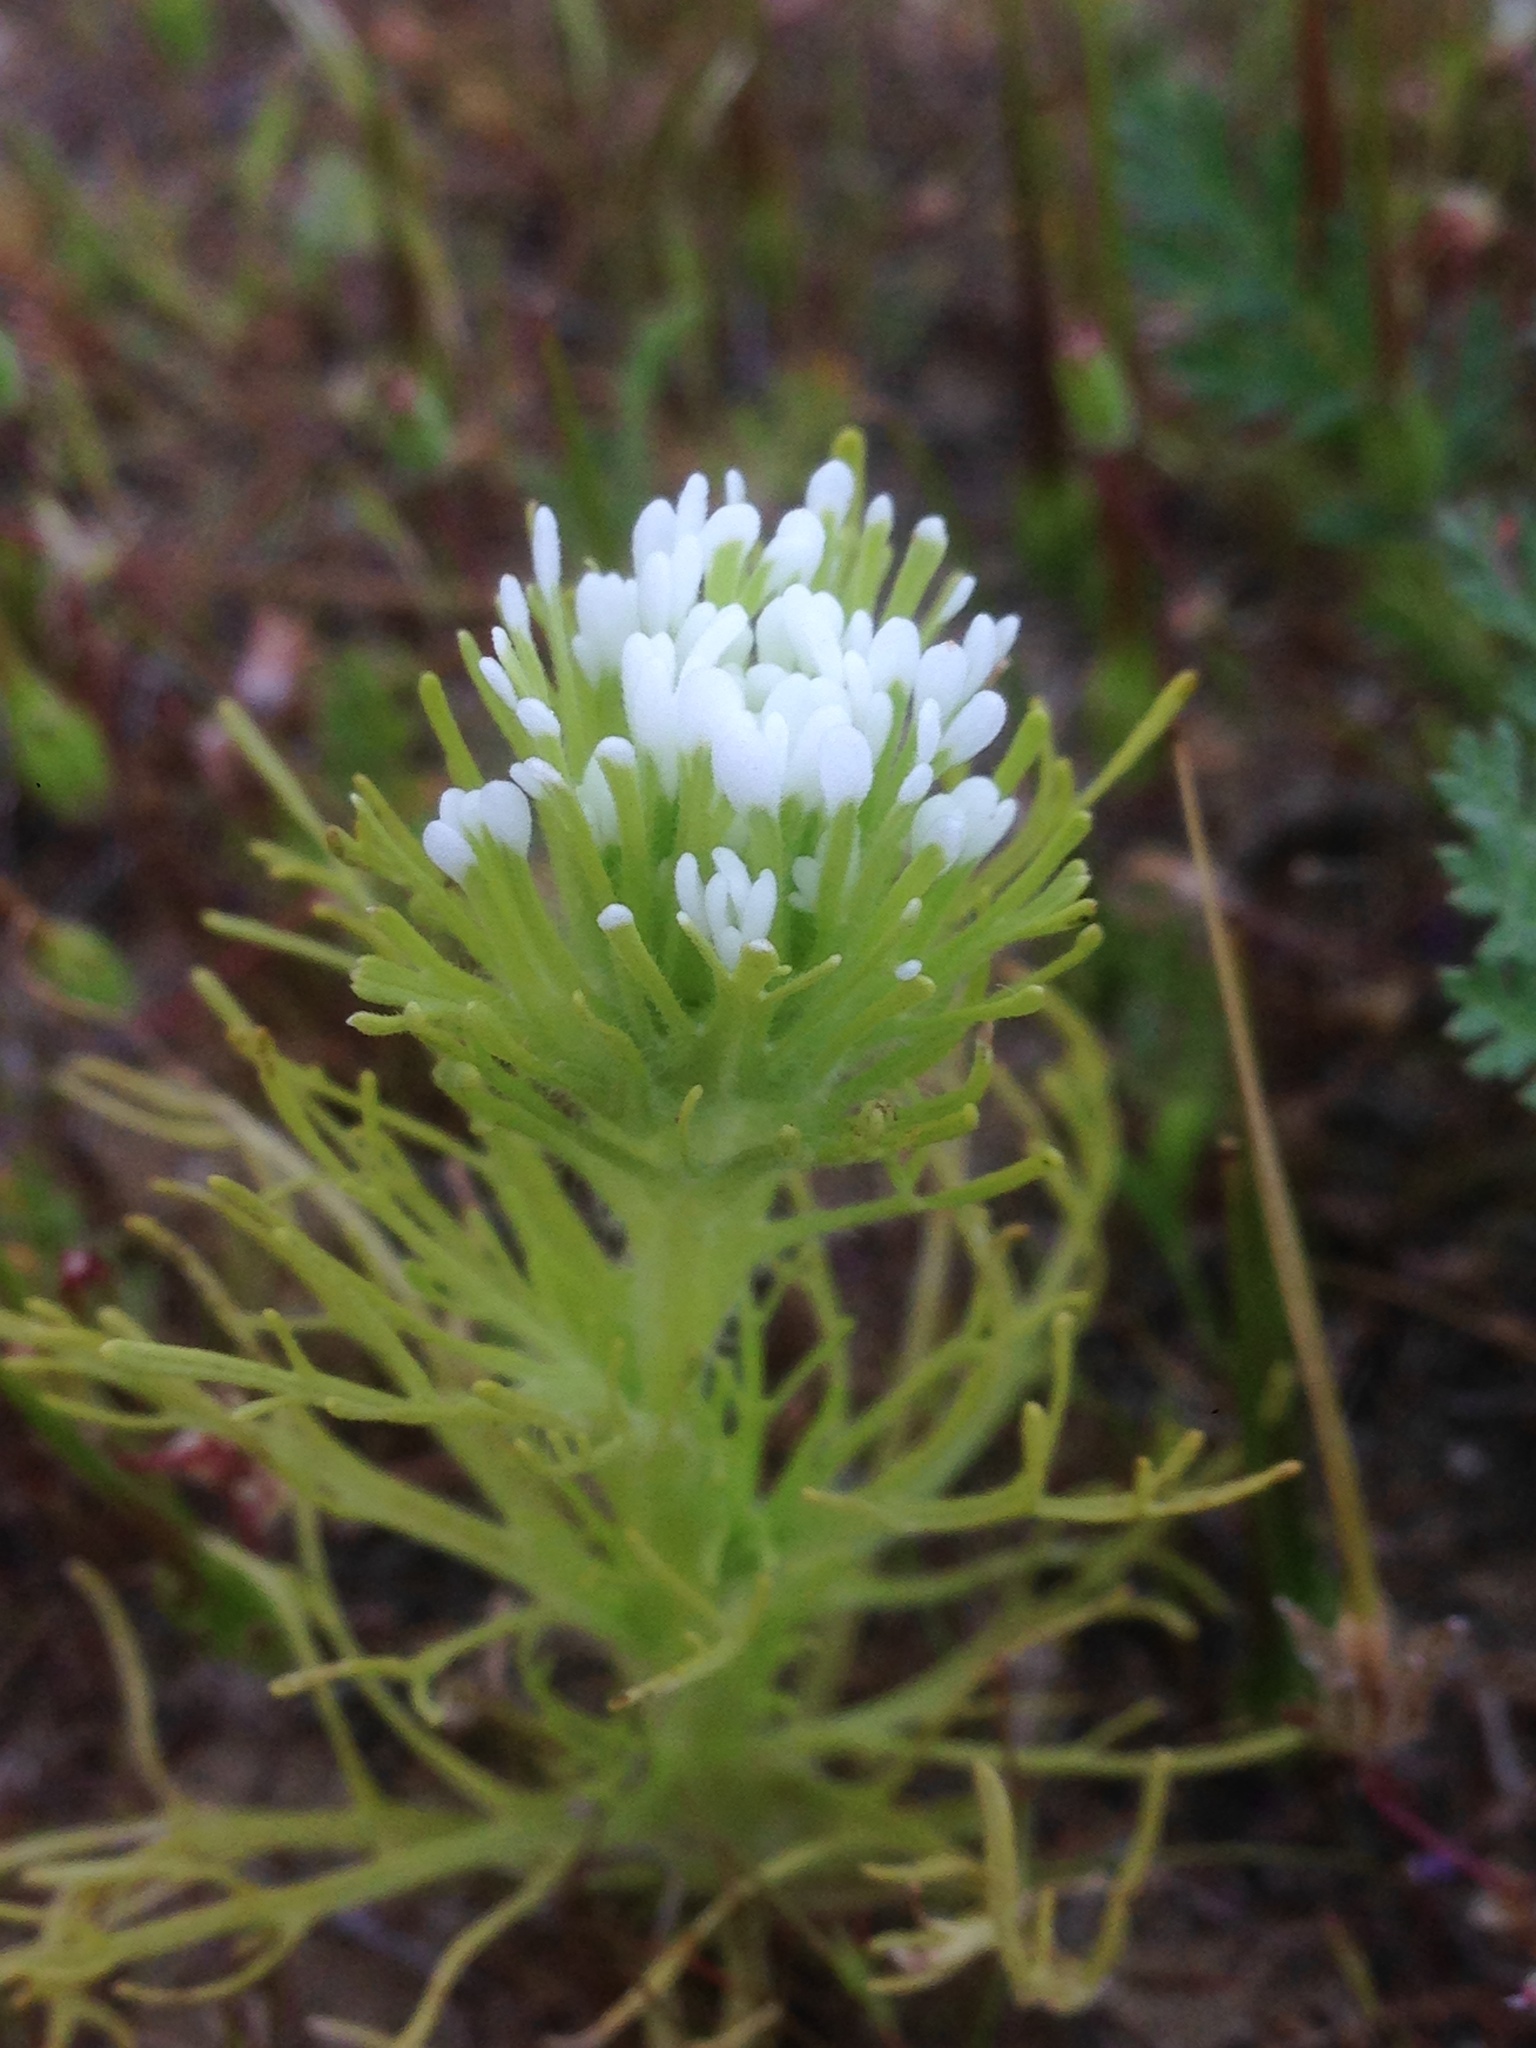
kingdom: Plantae
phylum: Tracheophyta
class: Magnoliopsida
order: Lamiales
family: Orobanchaceae
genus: Castilleja
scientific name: Castilleja exserta
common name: Purple owl-clover
